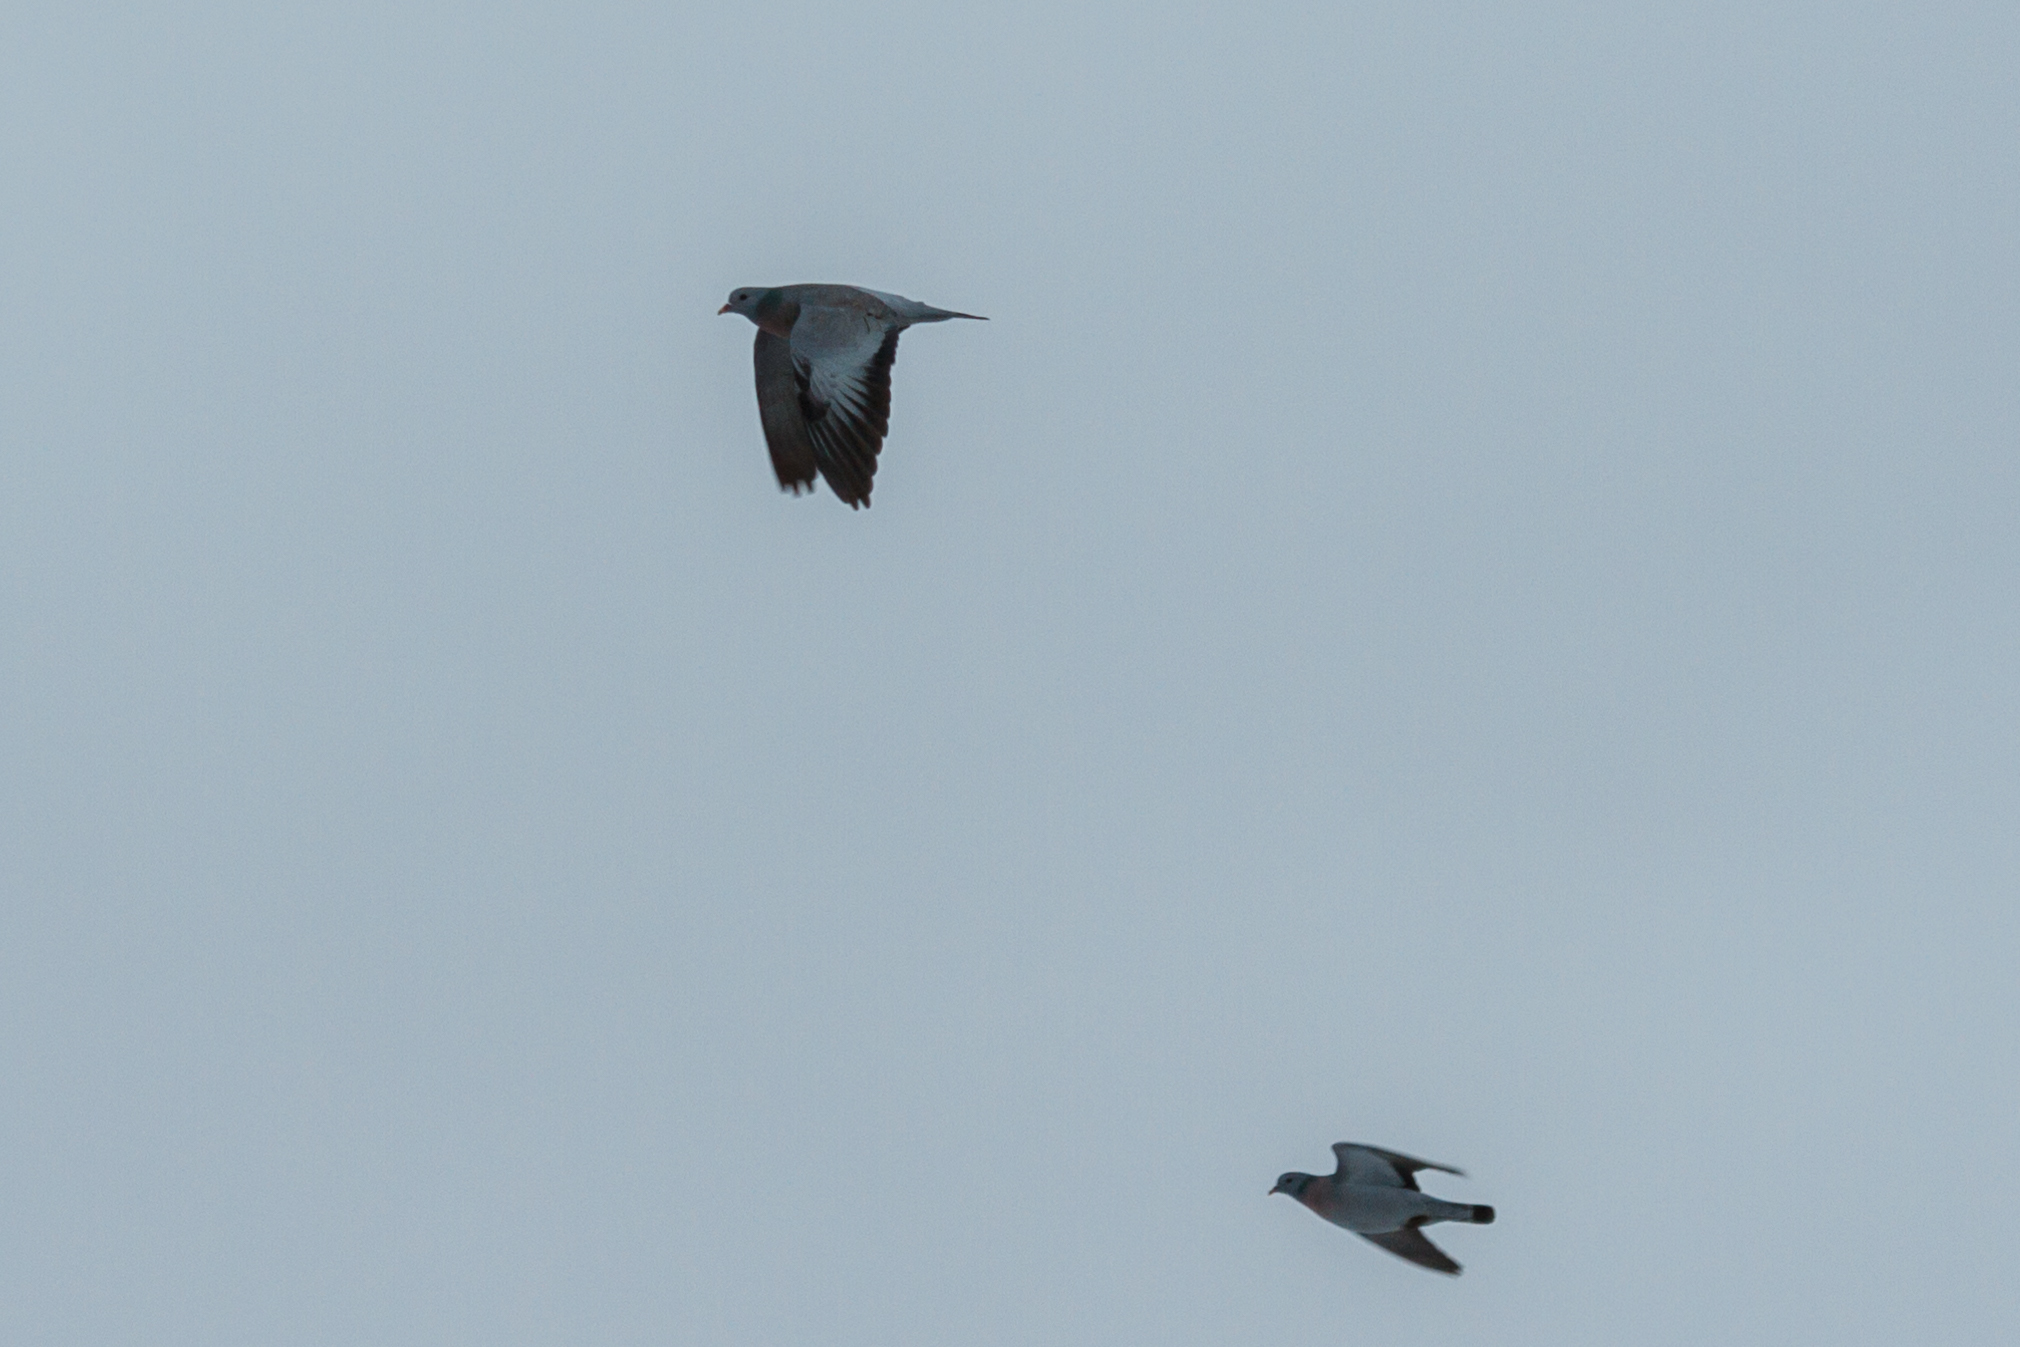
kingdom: Animalia
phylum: Chordata
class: Aves
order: Columbiformes
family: Columbidae
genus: Columba
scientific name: Columba oenas
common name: Stock dove
